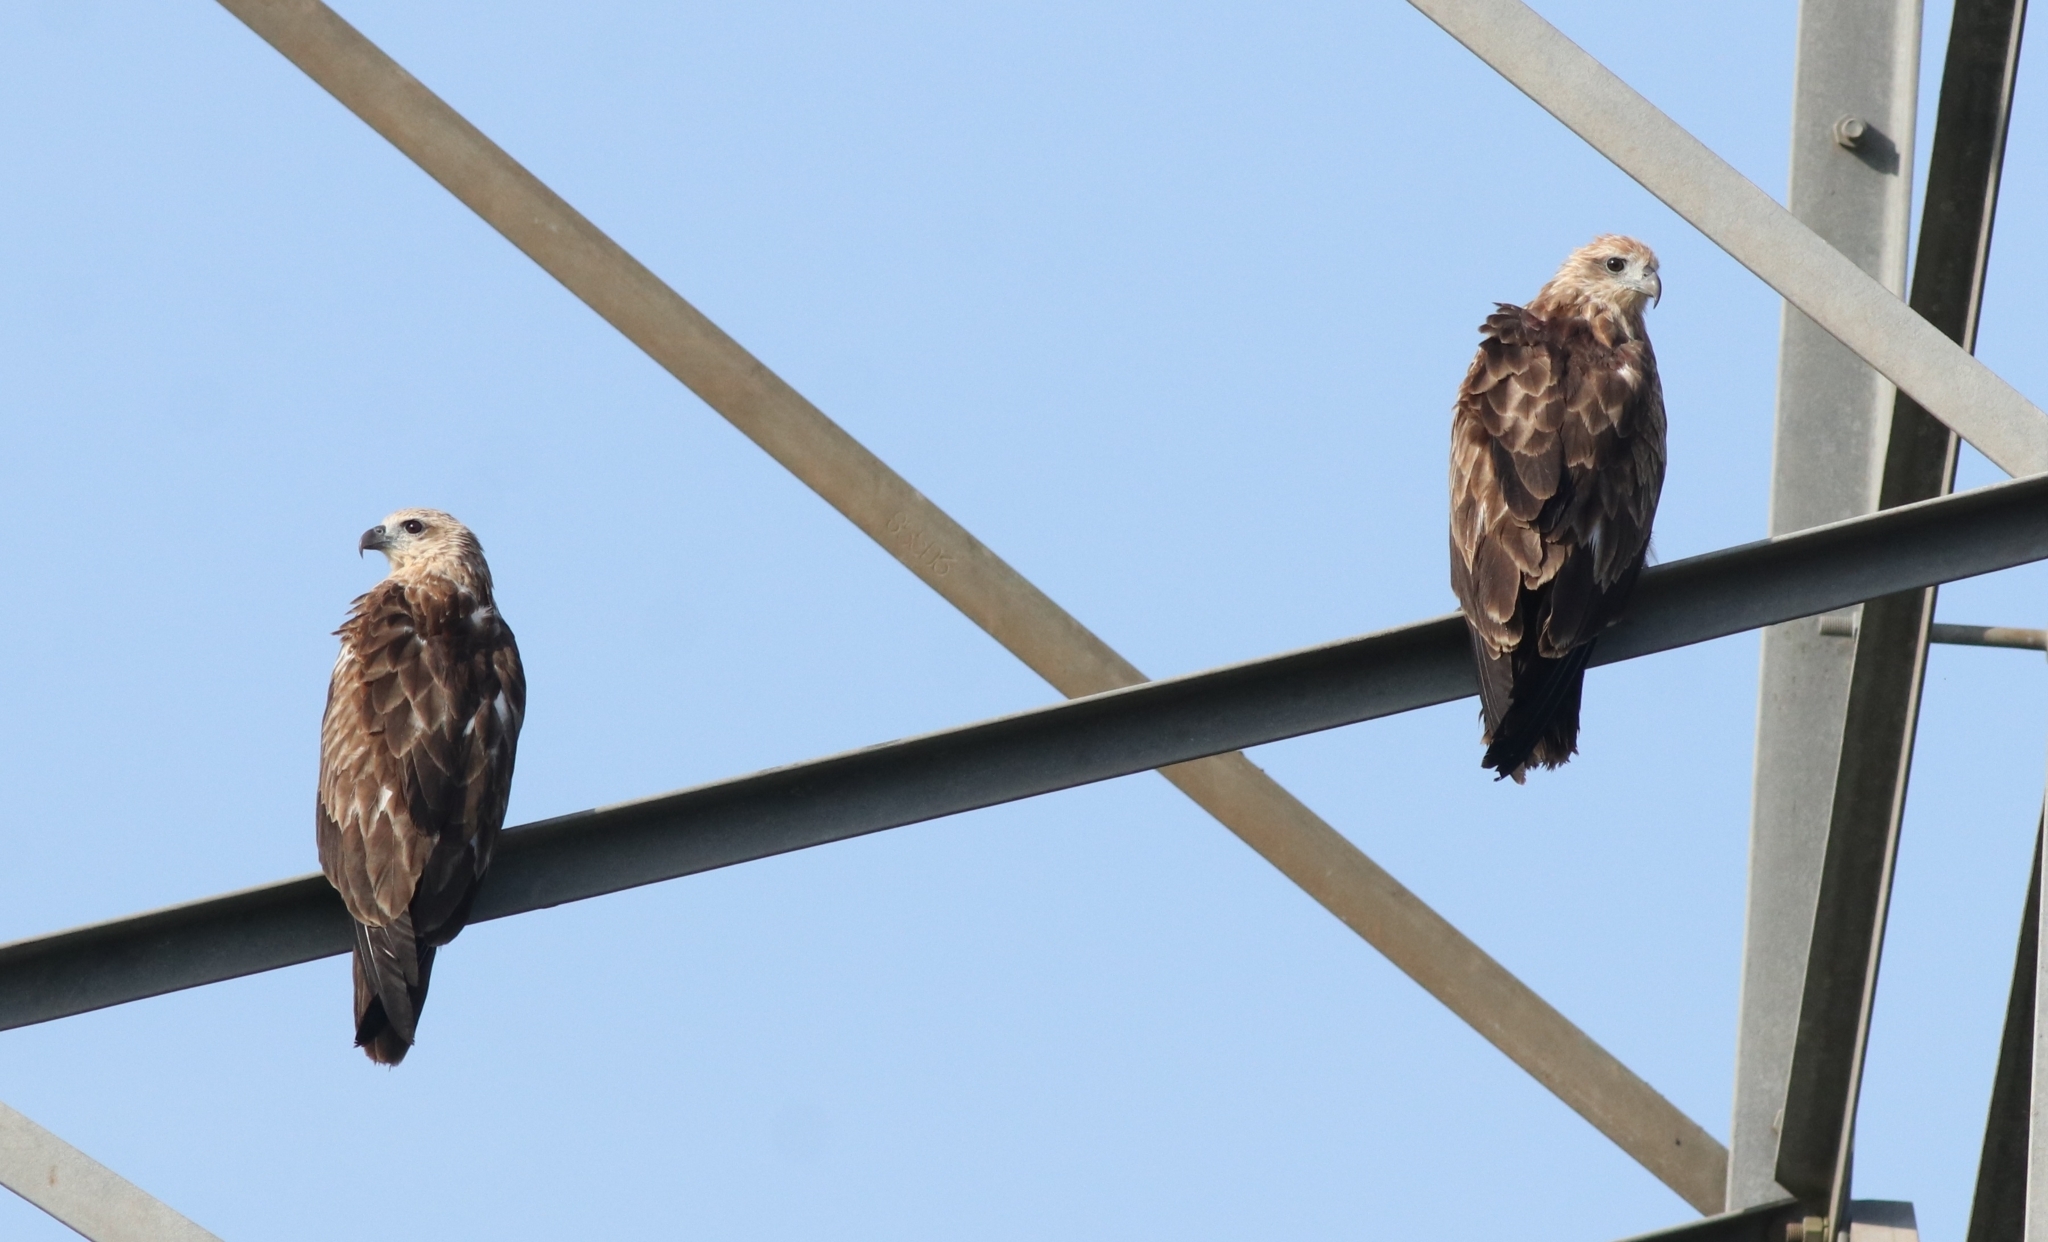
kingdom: Animalia
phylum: Chordata
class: Aves
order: Accipitriformes
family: Accipitridae
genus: Haliastur
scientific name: Haliastur indus
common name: Brahminy kite
